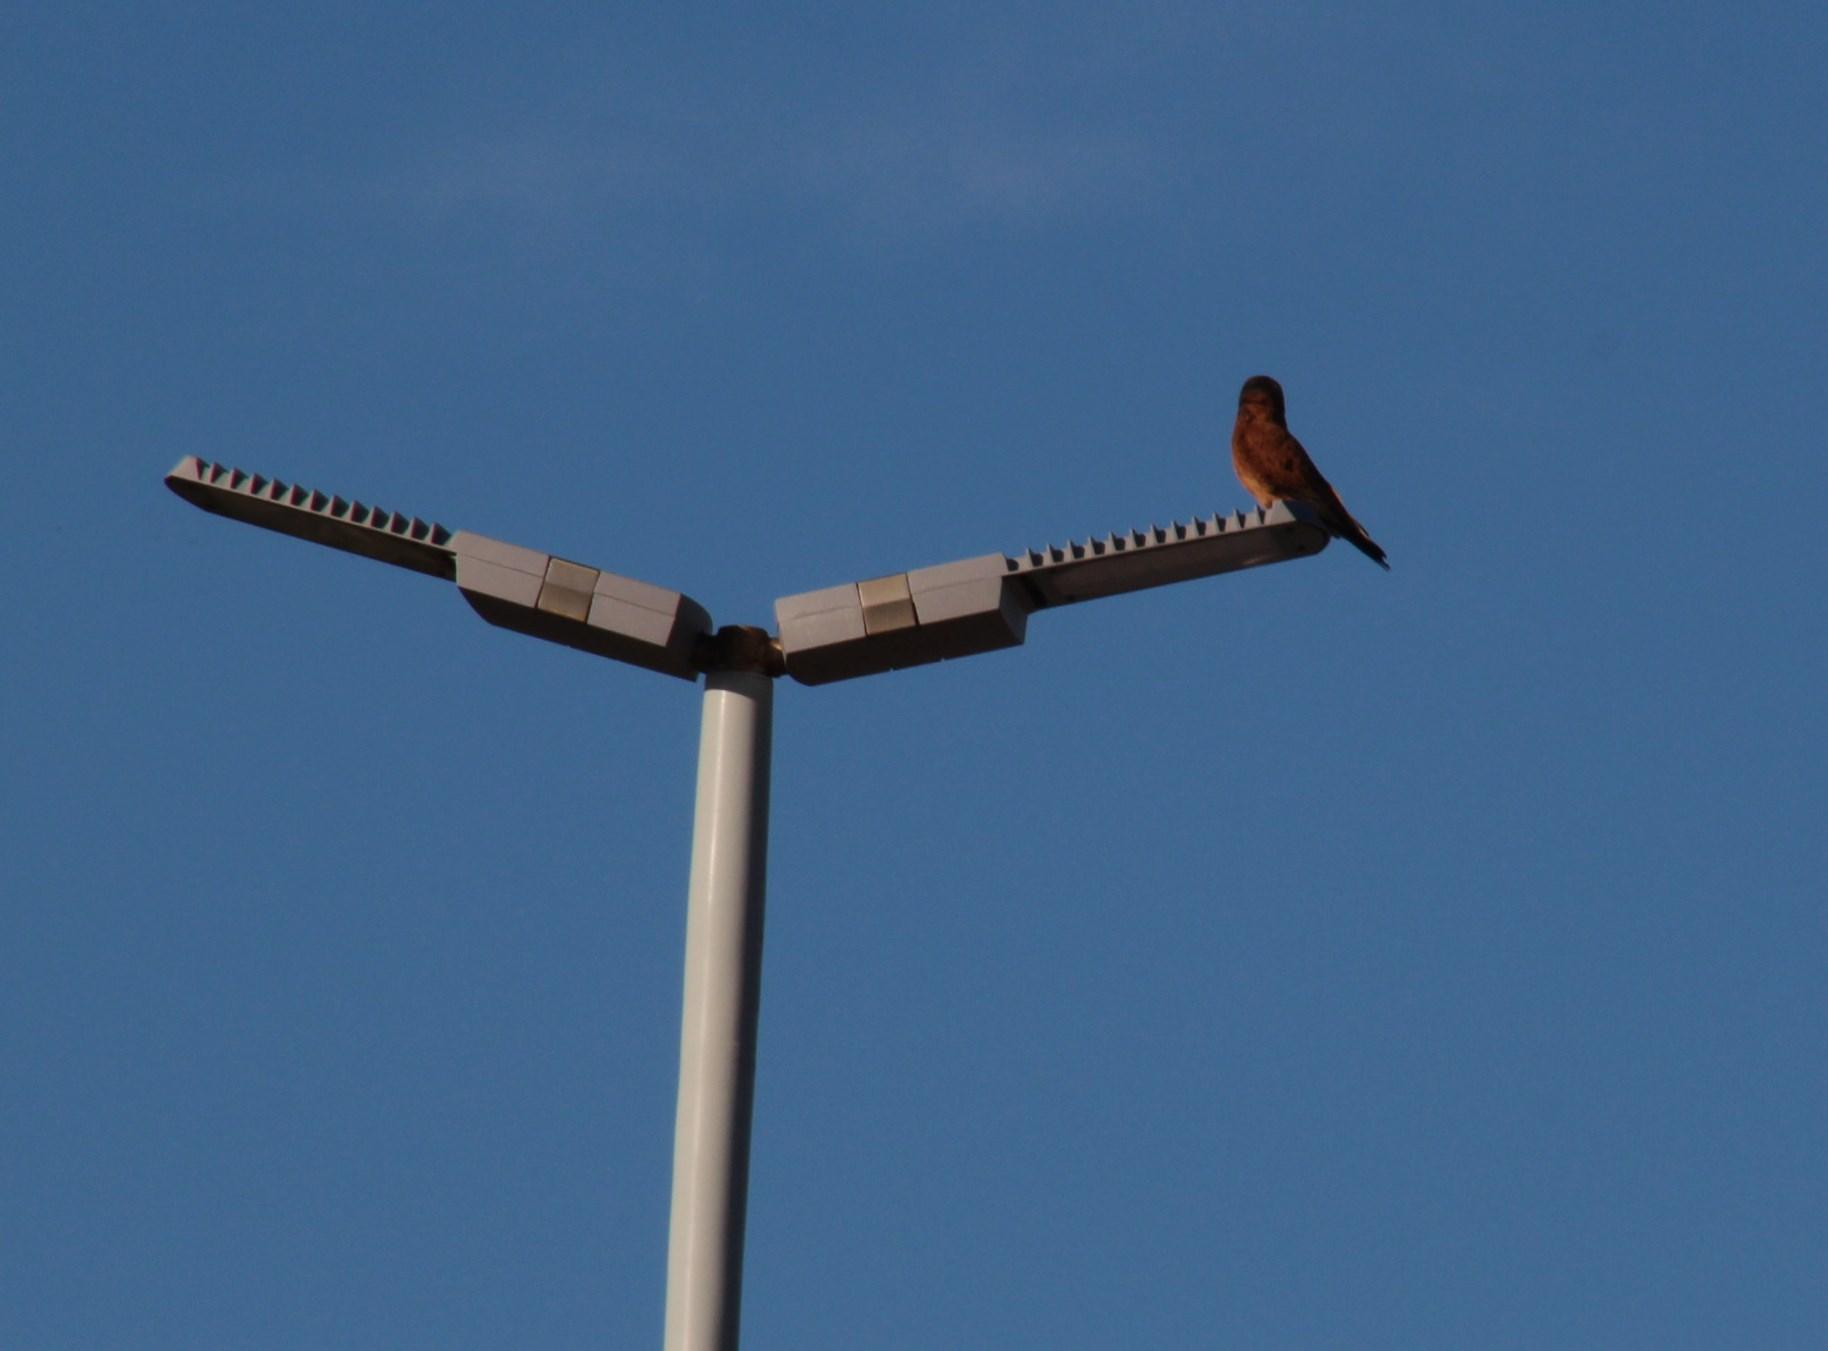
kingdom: Animalia
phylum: Chordata
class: Aves
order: Falconiformes
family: Falconidae
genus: Falco
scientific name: Falco rupicolus
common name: Rock kestrel
